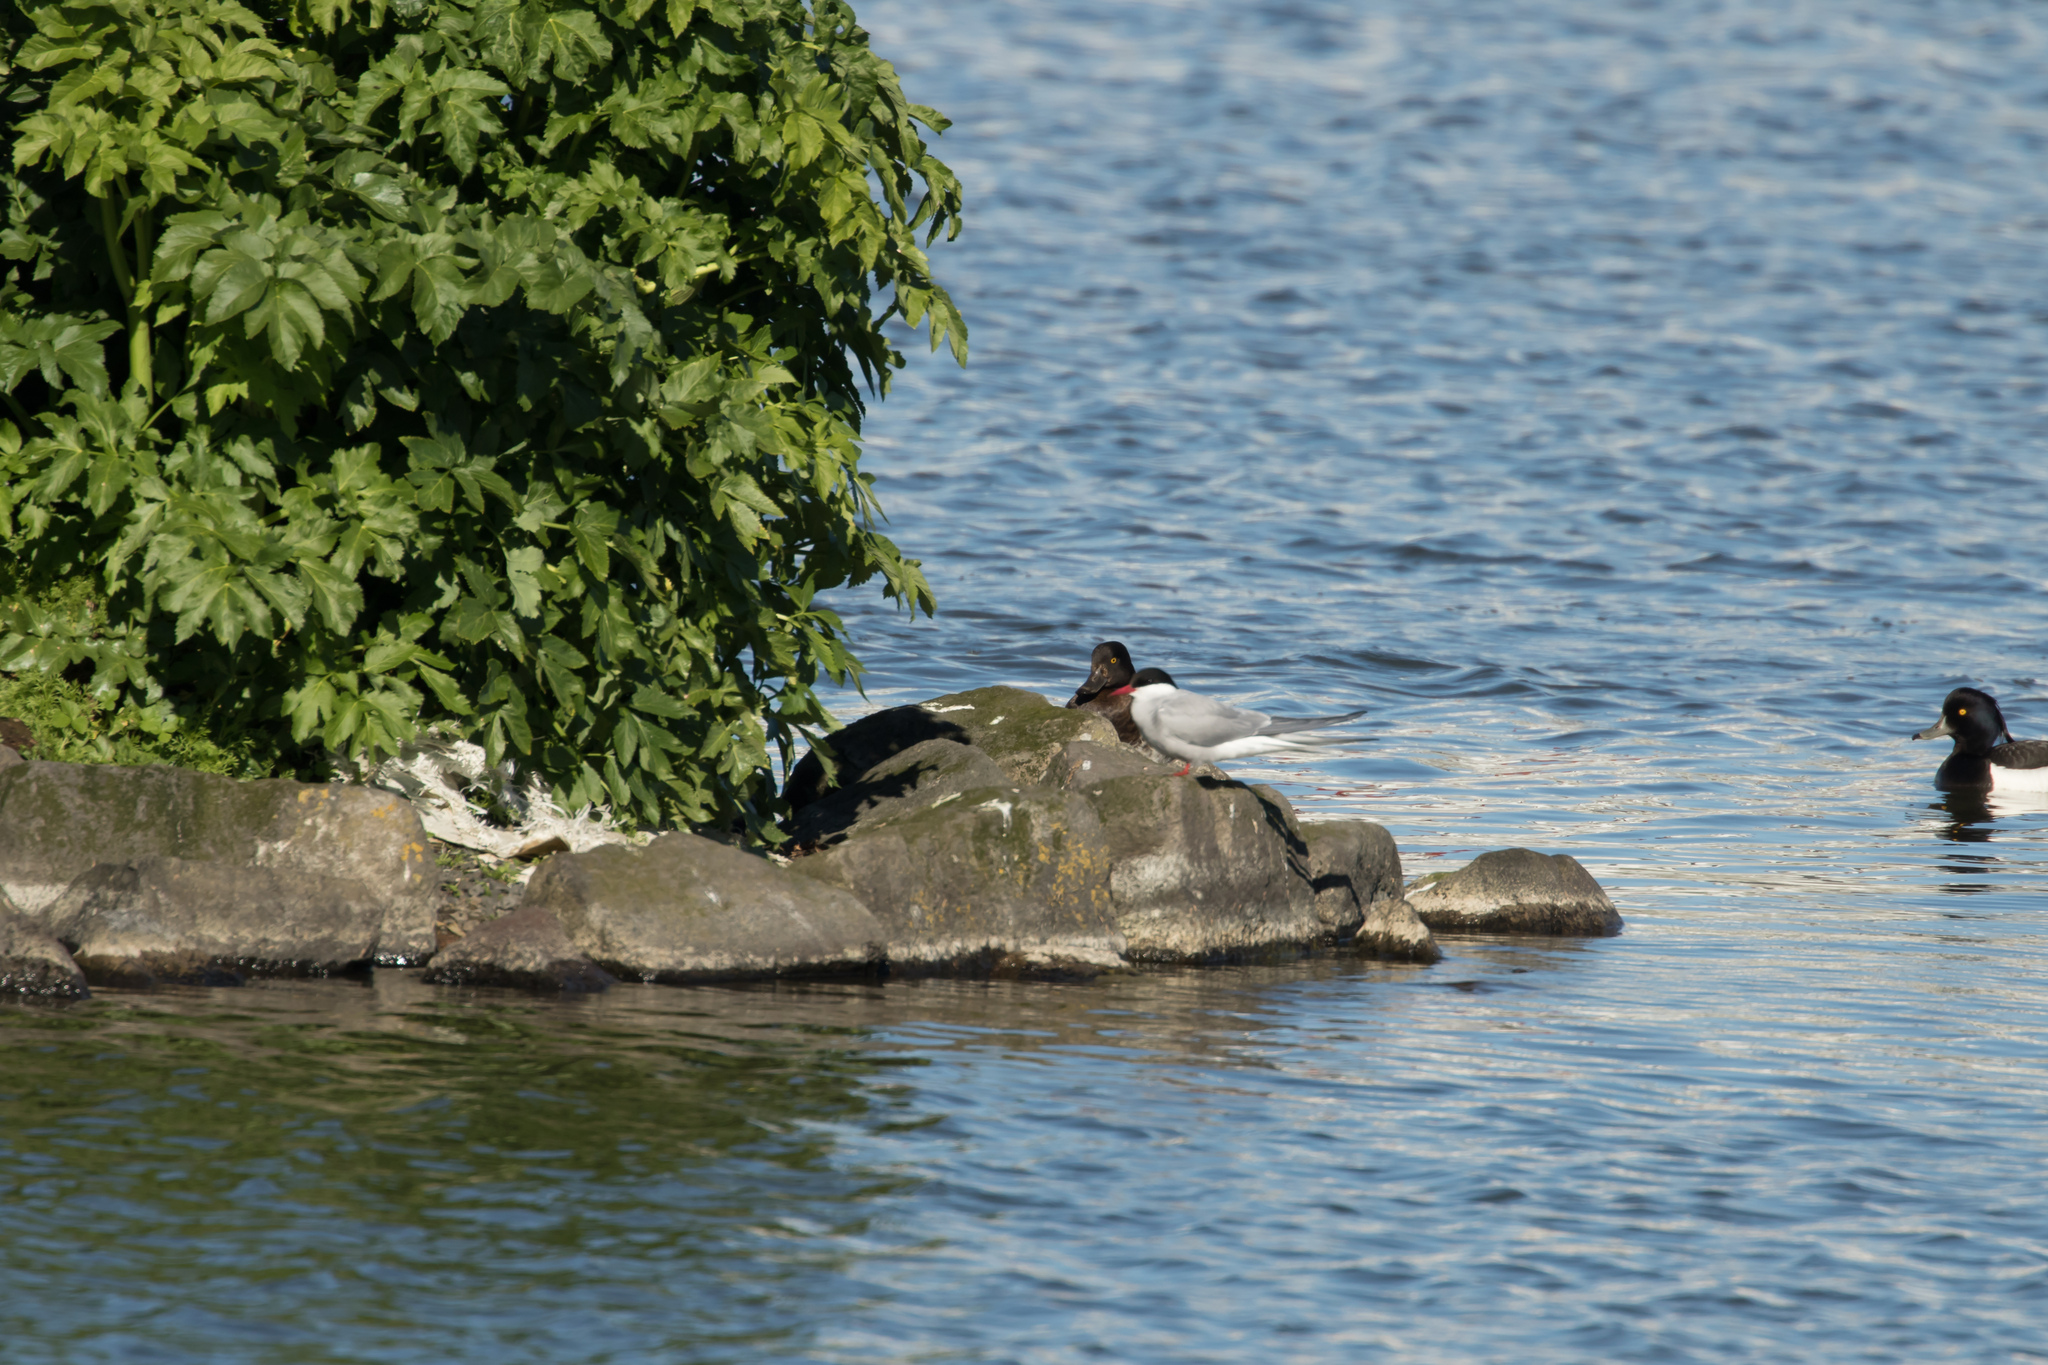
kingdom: Animalia
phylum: Chordata
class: Aves
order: Charadriiformes
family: Laridae
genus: Sterna
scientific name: Sterna paradisaea
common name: Arctic tern
